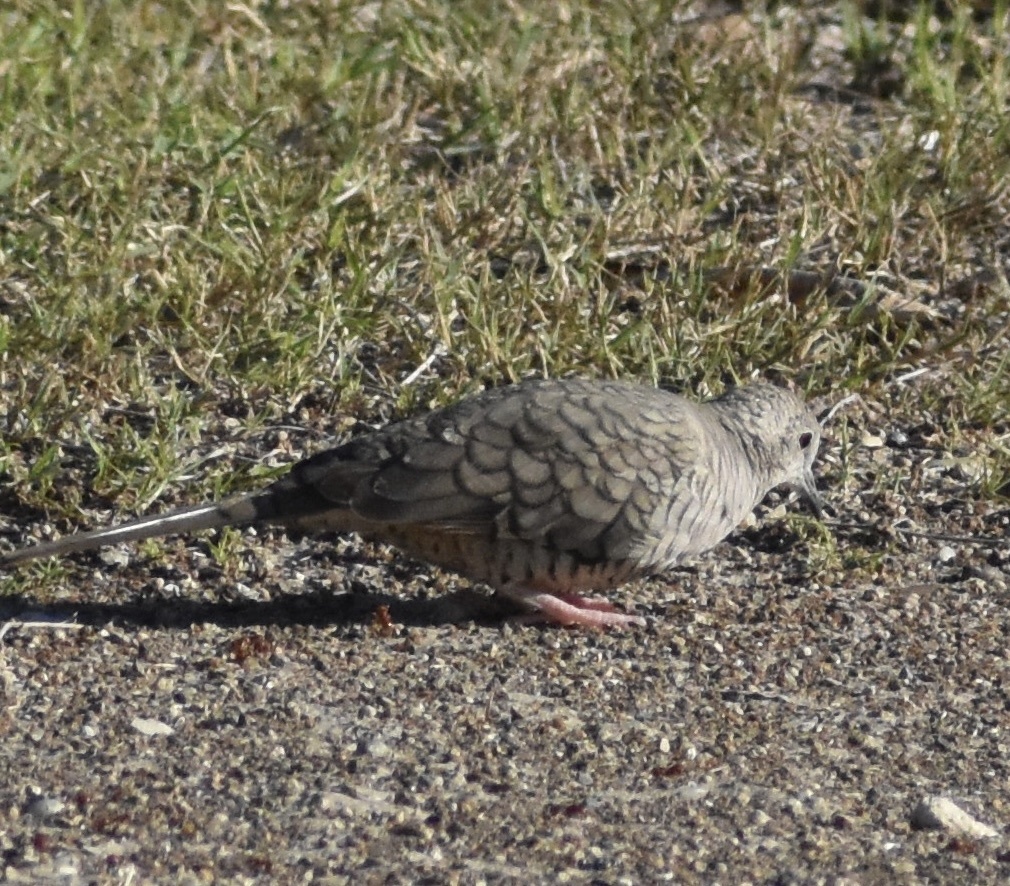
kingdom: Animalia
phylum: Chordata
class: Aves
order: Columbiformes
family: Columbidae
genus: Columbina
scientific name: Columbina inca
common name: Inca dove
